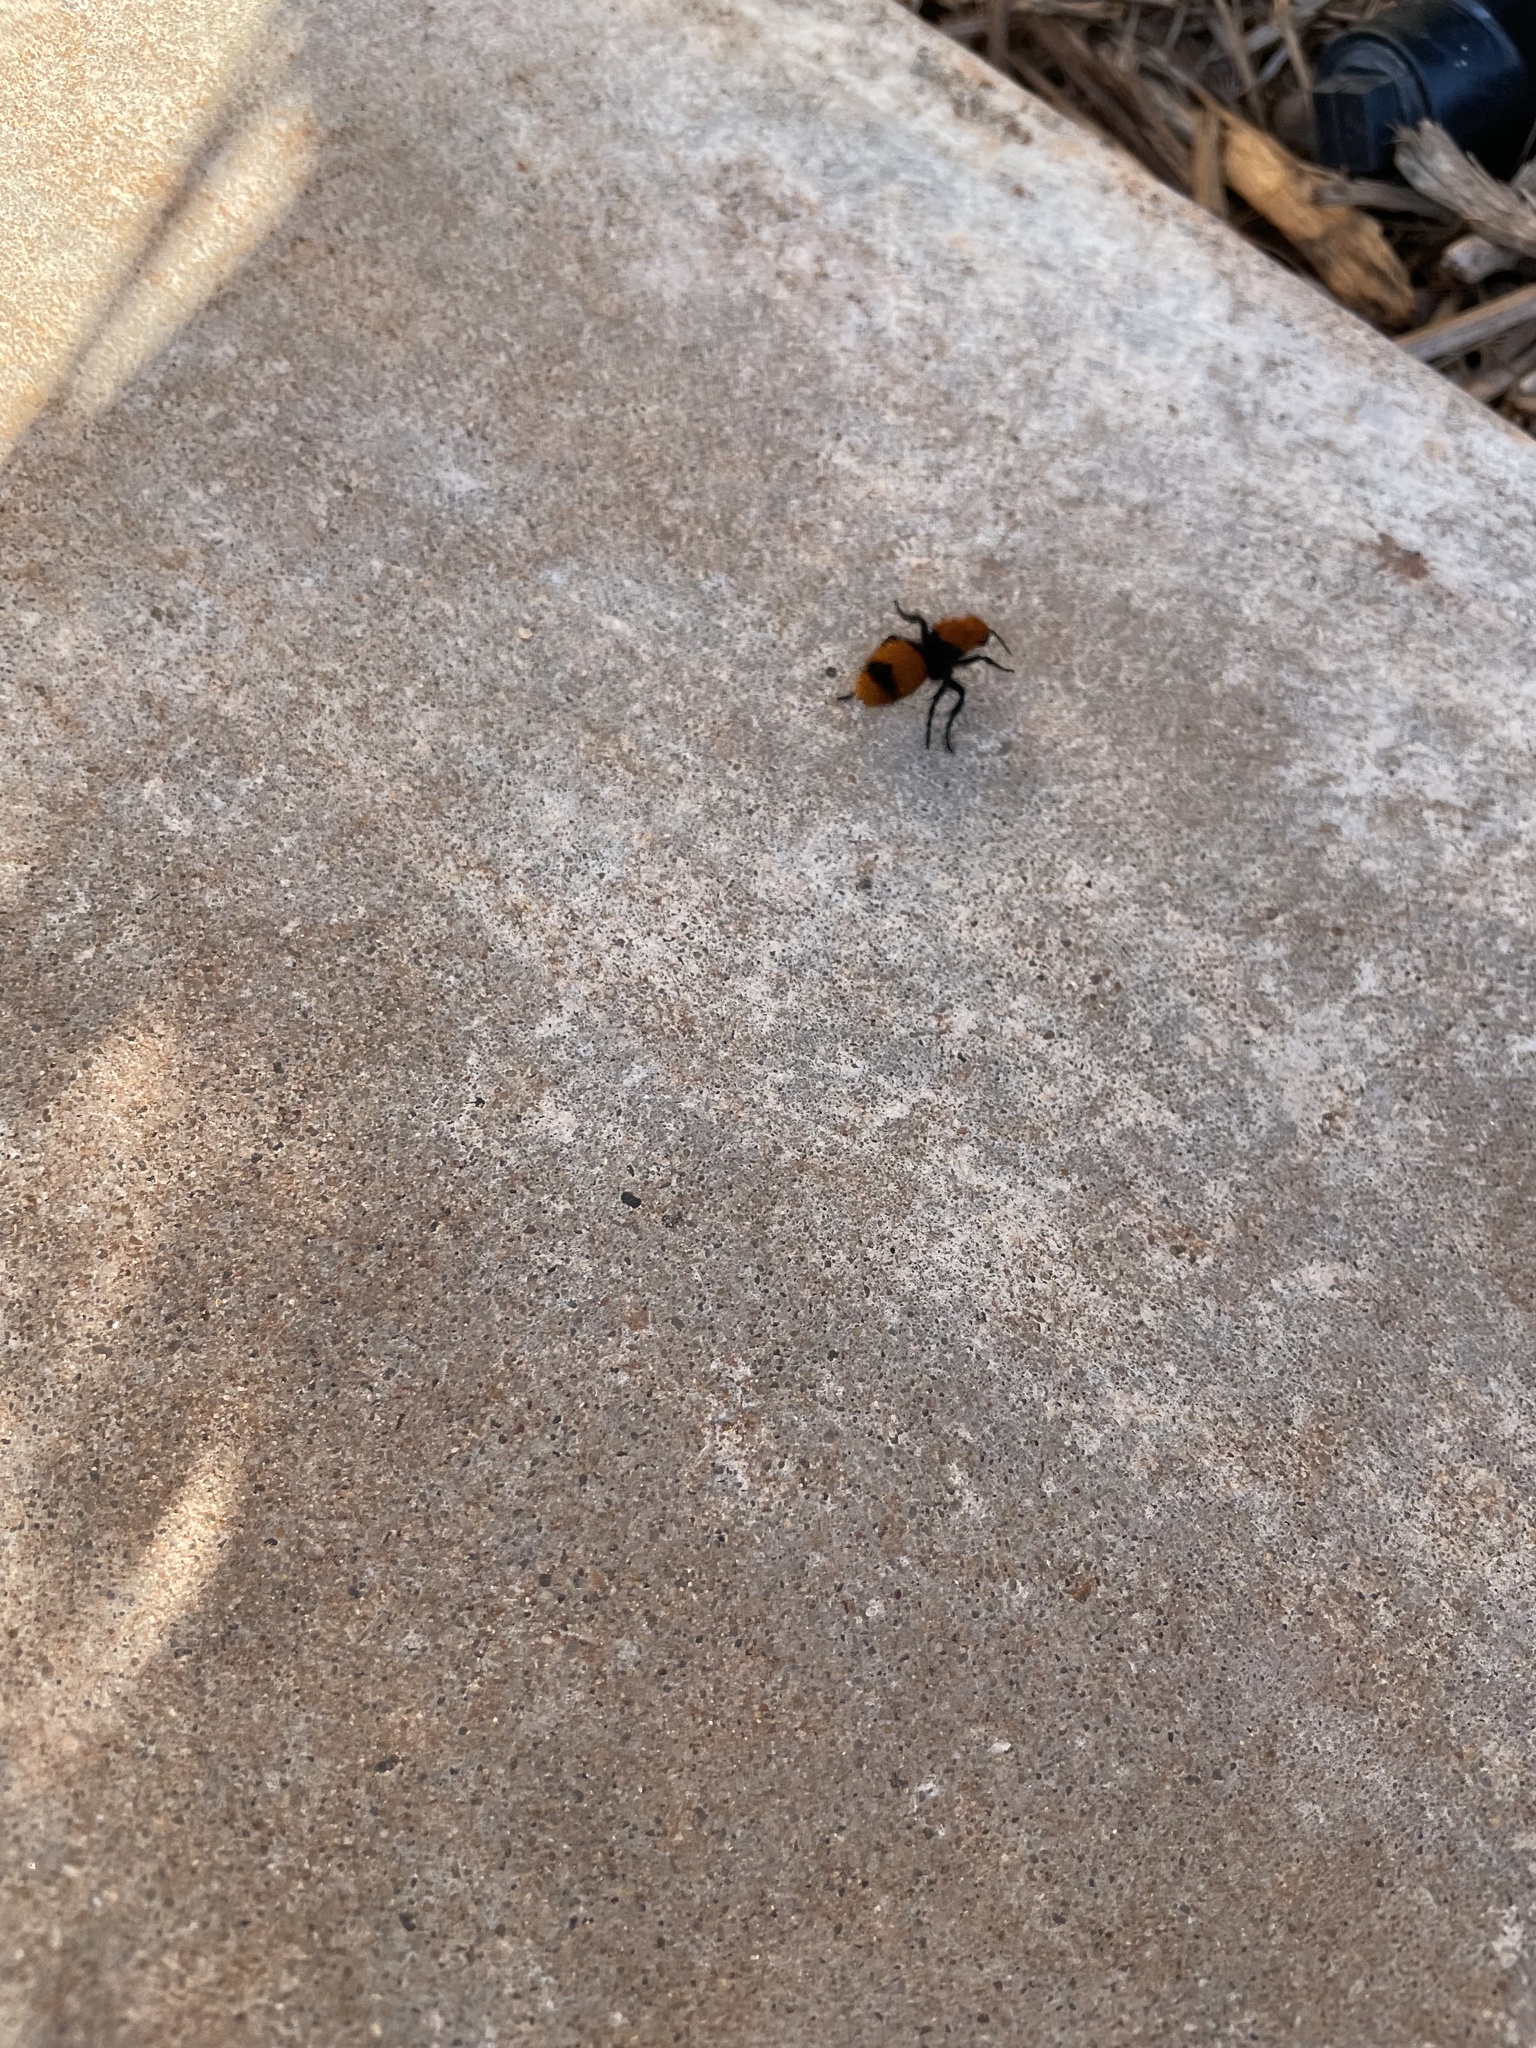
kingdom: Animalia
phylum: Arthropoda
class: Insecta
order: Hymenoptera
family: Mutillidae
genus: Dasymutilla
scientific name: Dasymutilla occidentalis
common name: Common eastern velvet ant
